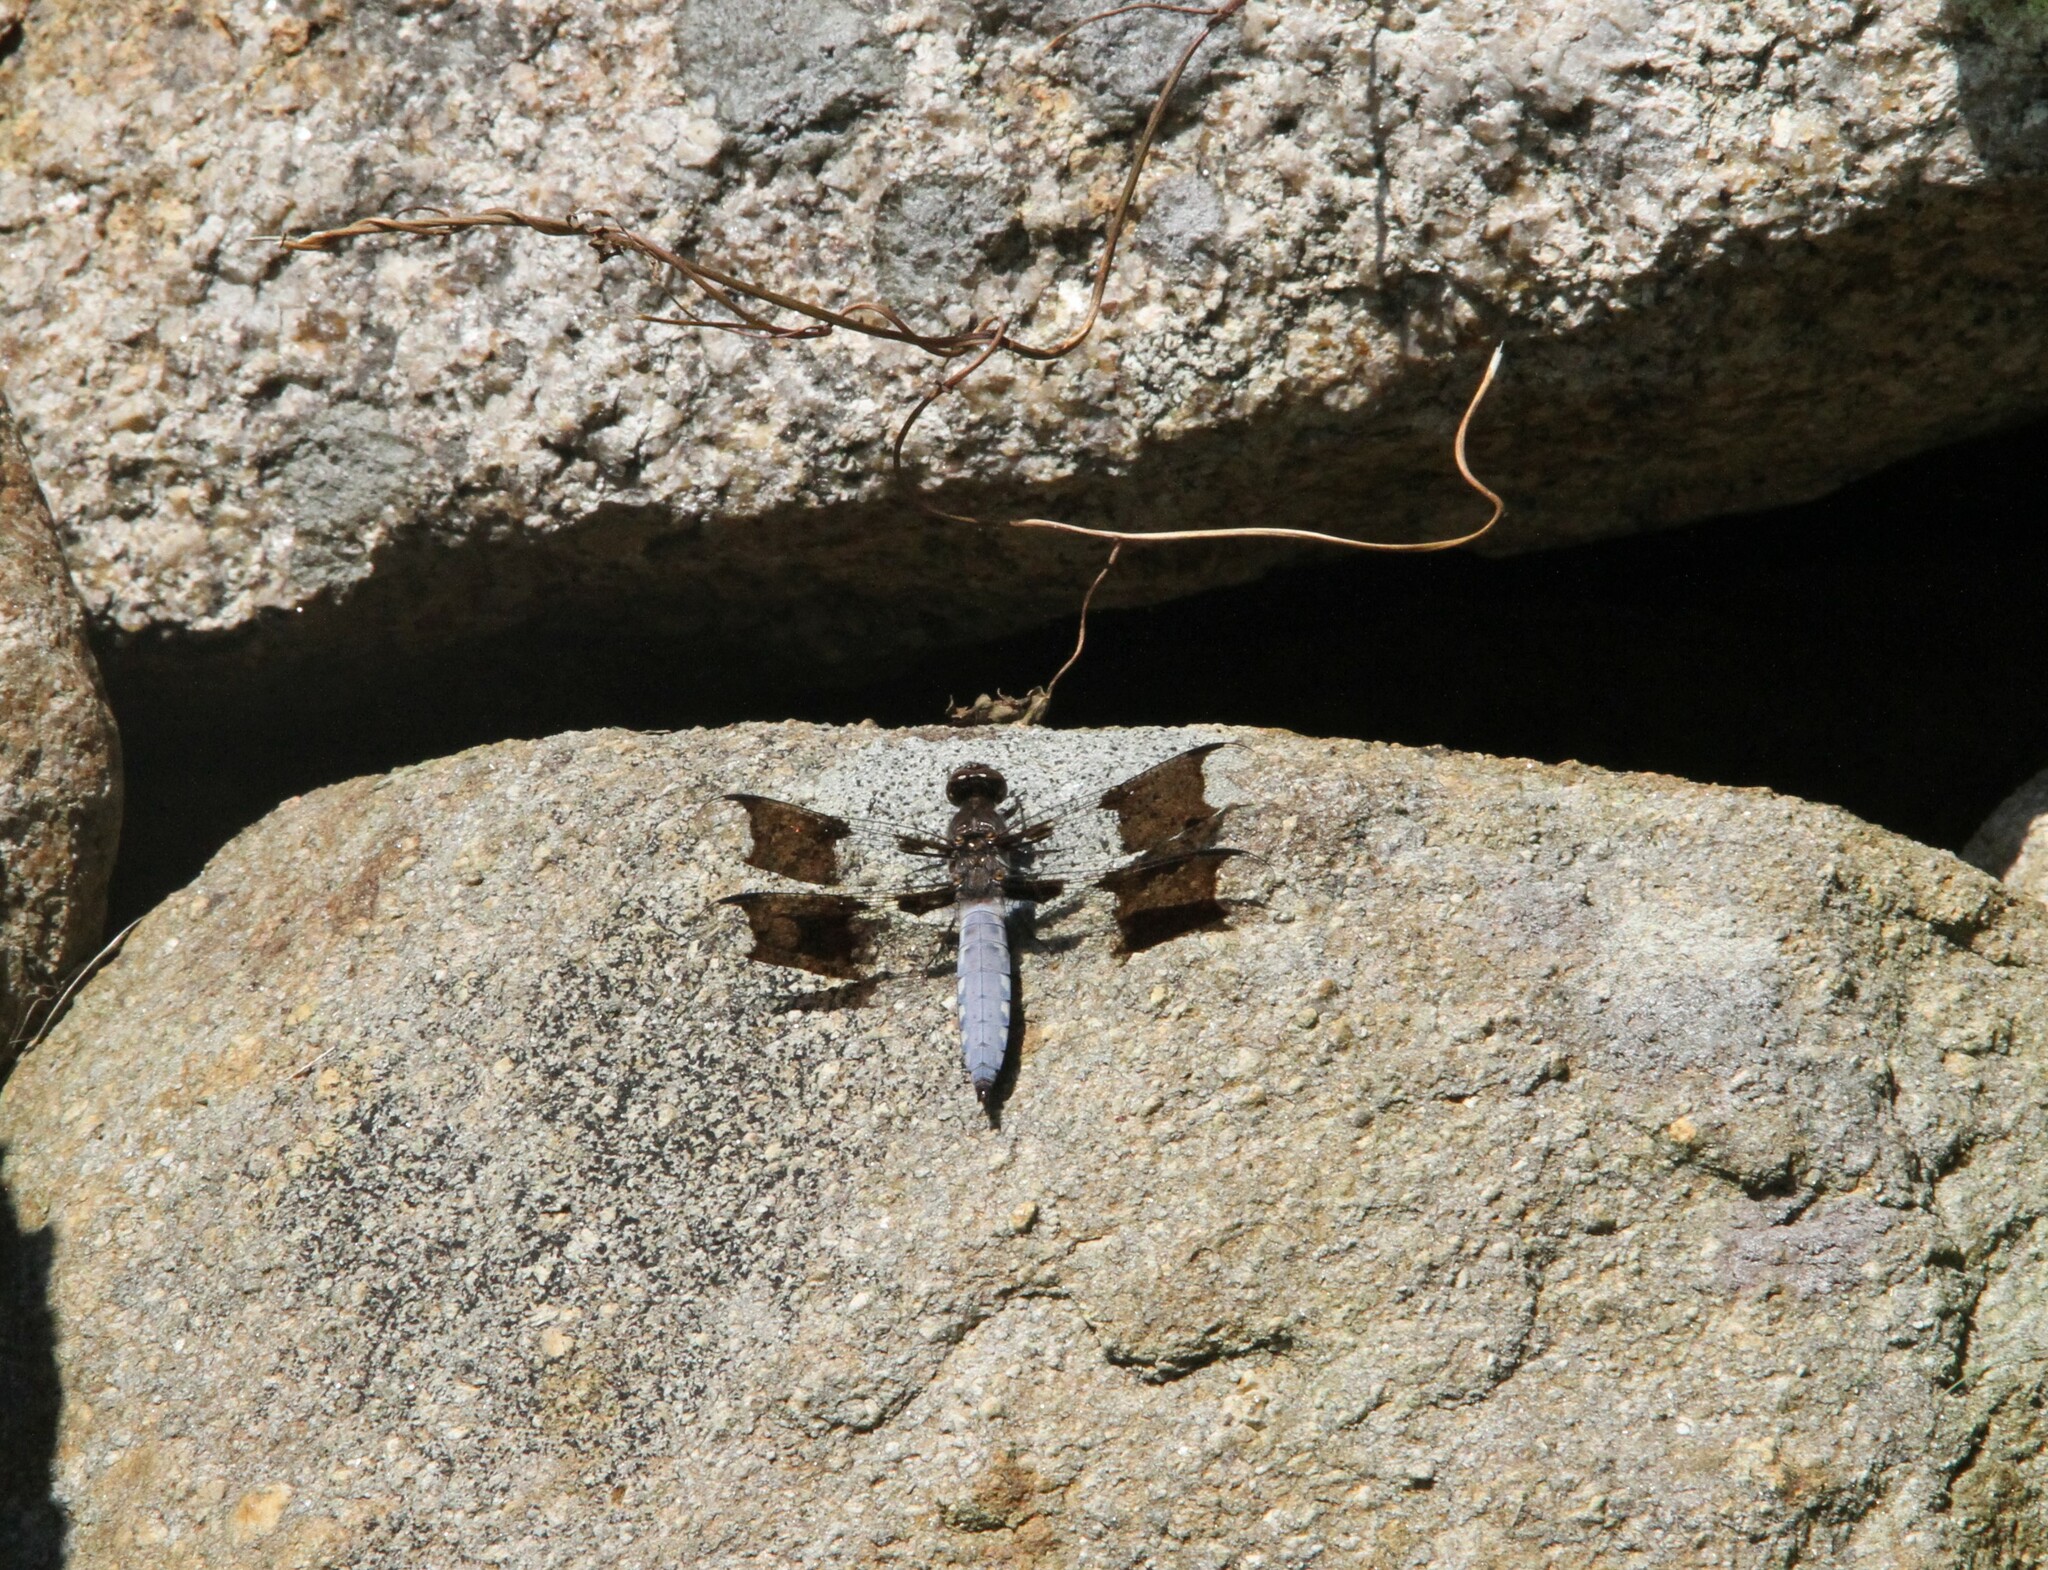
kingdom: Animalia
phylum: Arthropoda
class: Insecta
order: Odonata
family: Libellulidae
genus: Plathemis
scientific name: Plathemis lydia
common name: Common whitetail
